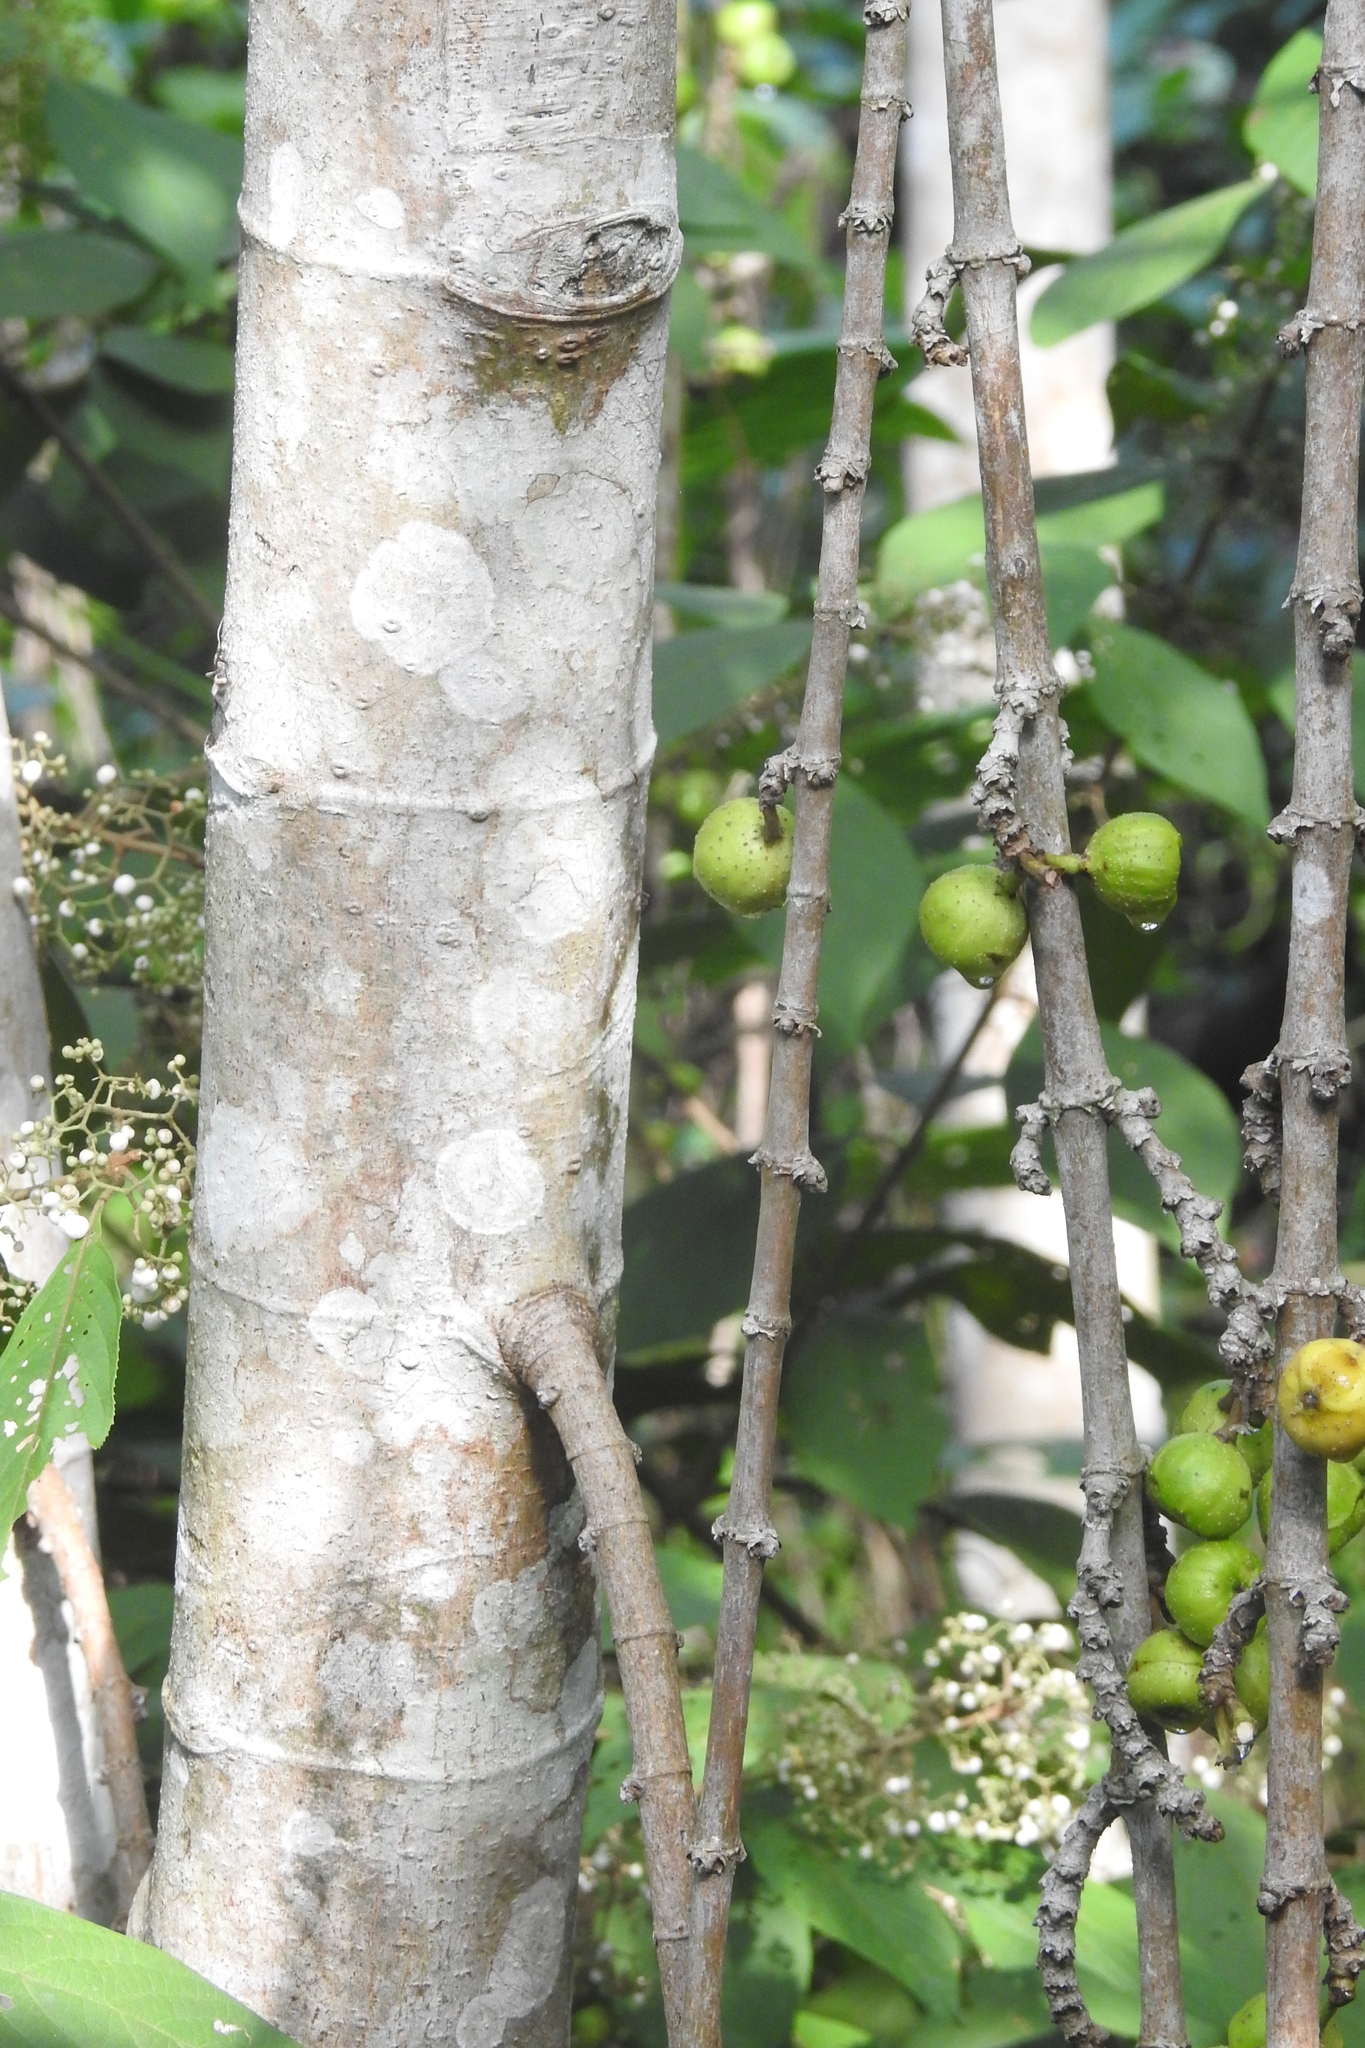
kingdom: Plantae
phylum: Tracheophyta
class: Magnoliopsida
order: Rosales
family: Moraceae
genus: Ficus
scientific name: Ficus hispida
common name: Hairy fig
